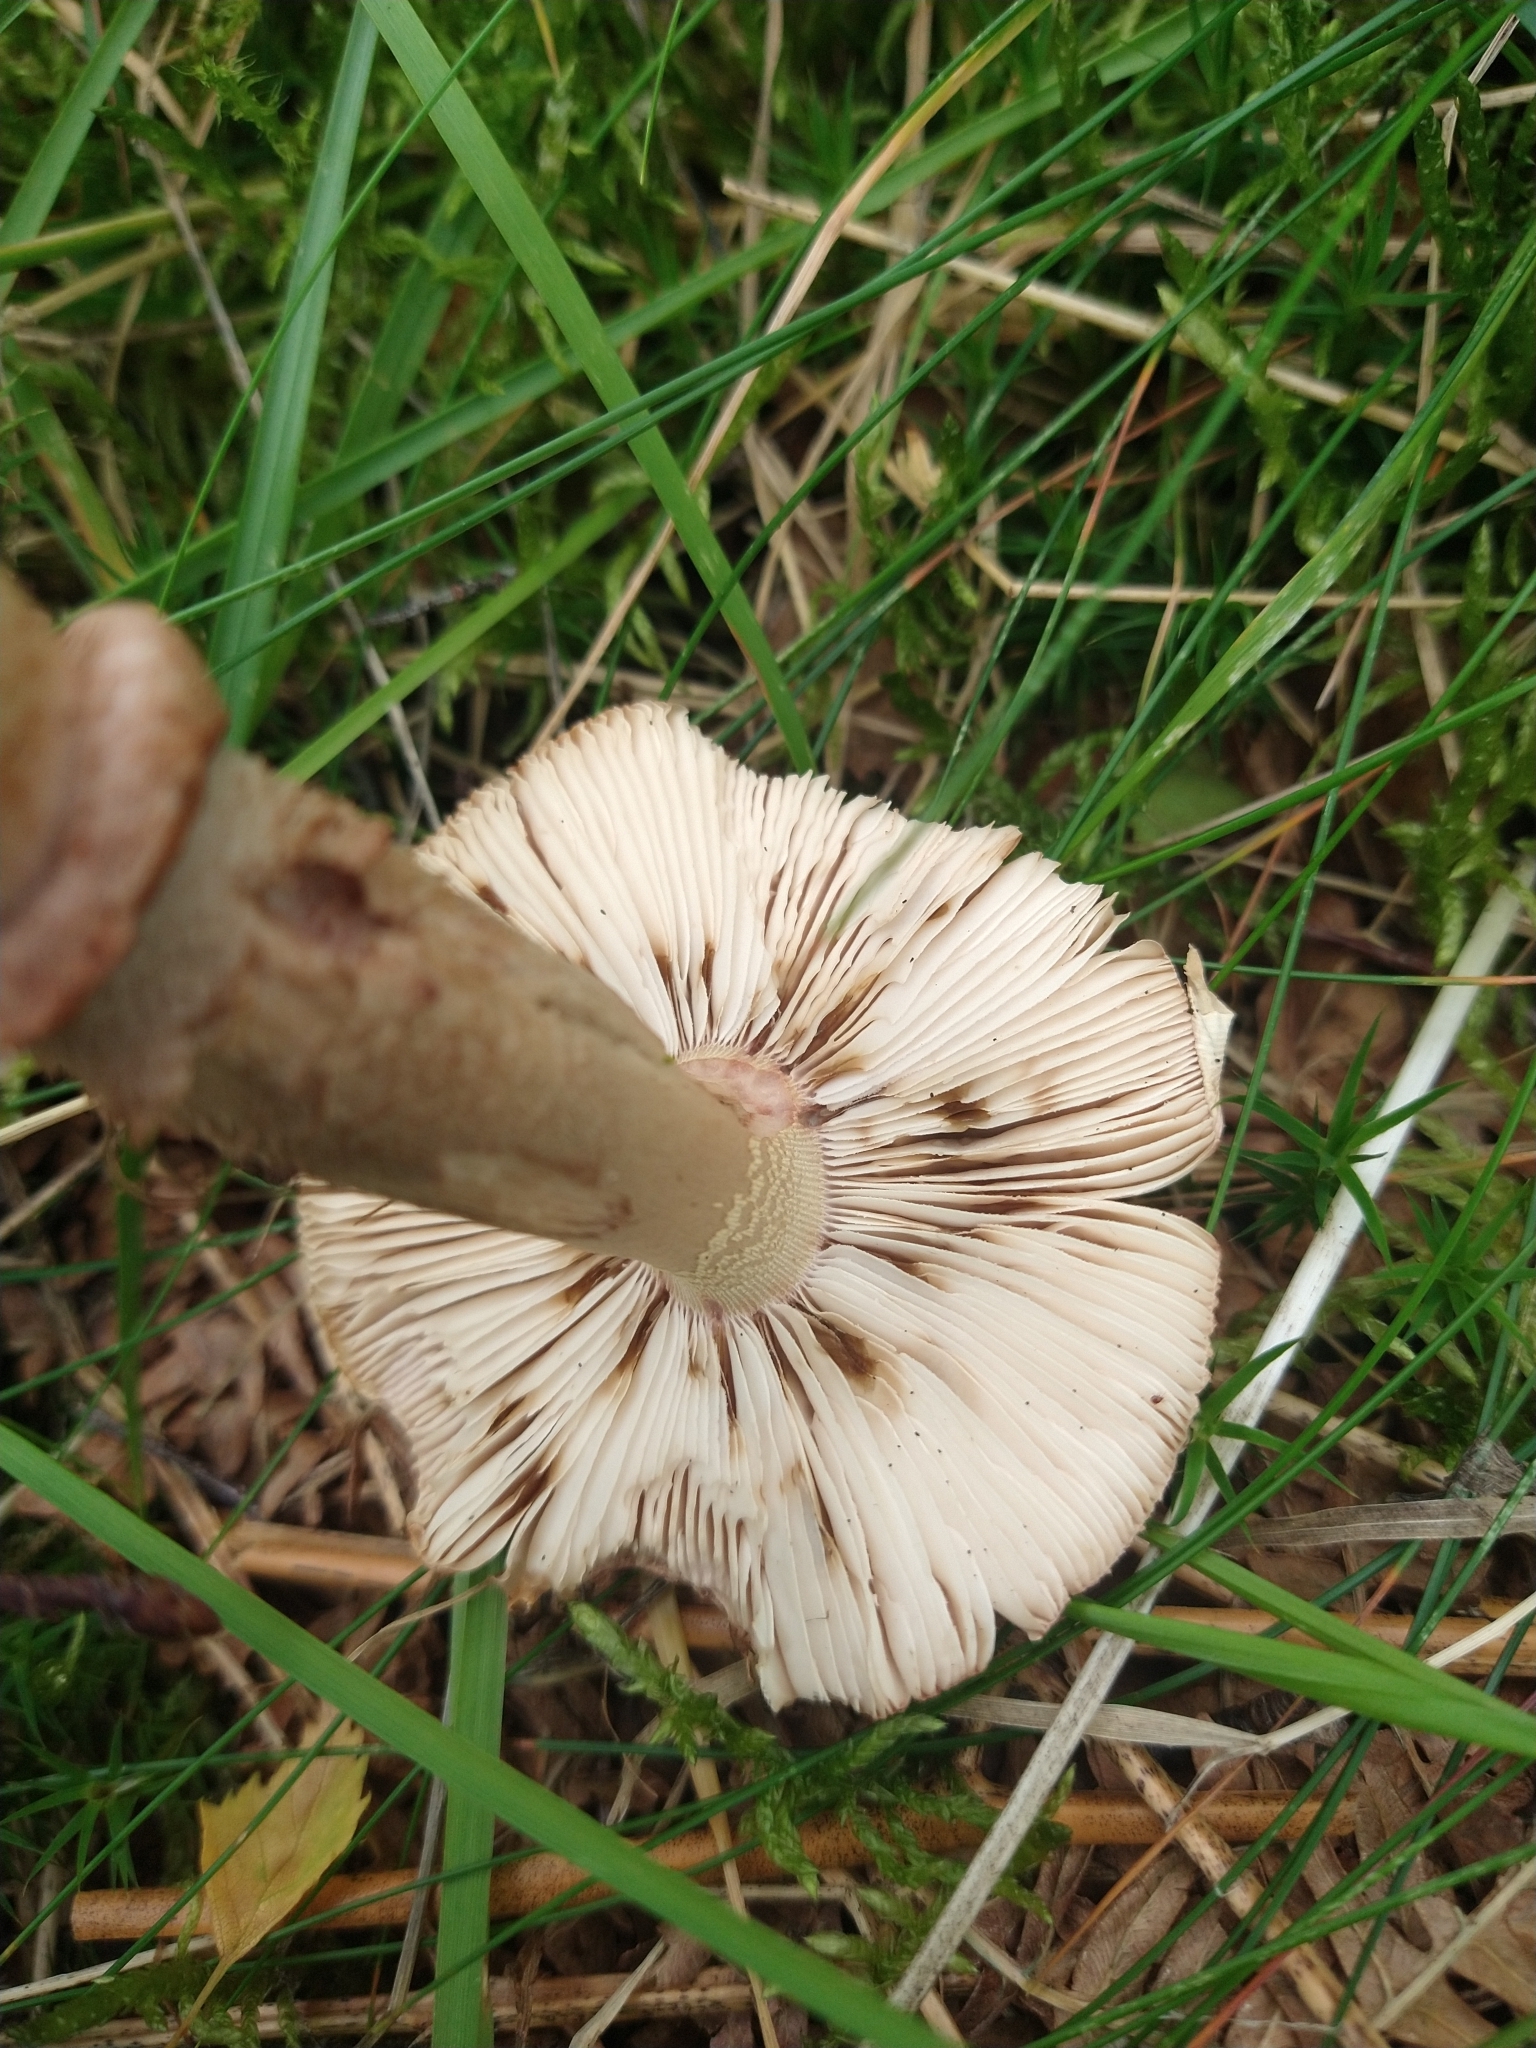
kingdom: Fungi
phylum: Basidiomycota
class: Agaricomycetes
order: Agaricales
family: Amanitaceae
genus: Amanita
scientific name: Amanita rubescens
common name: Blusher
